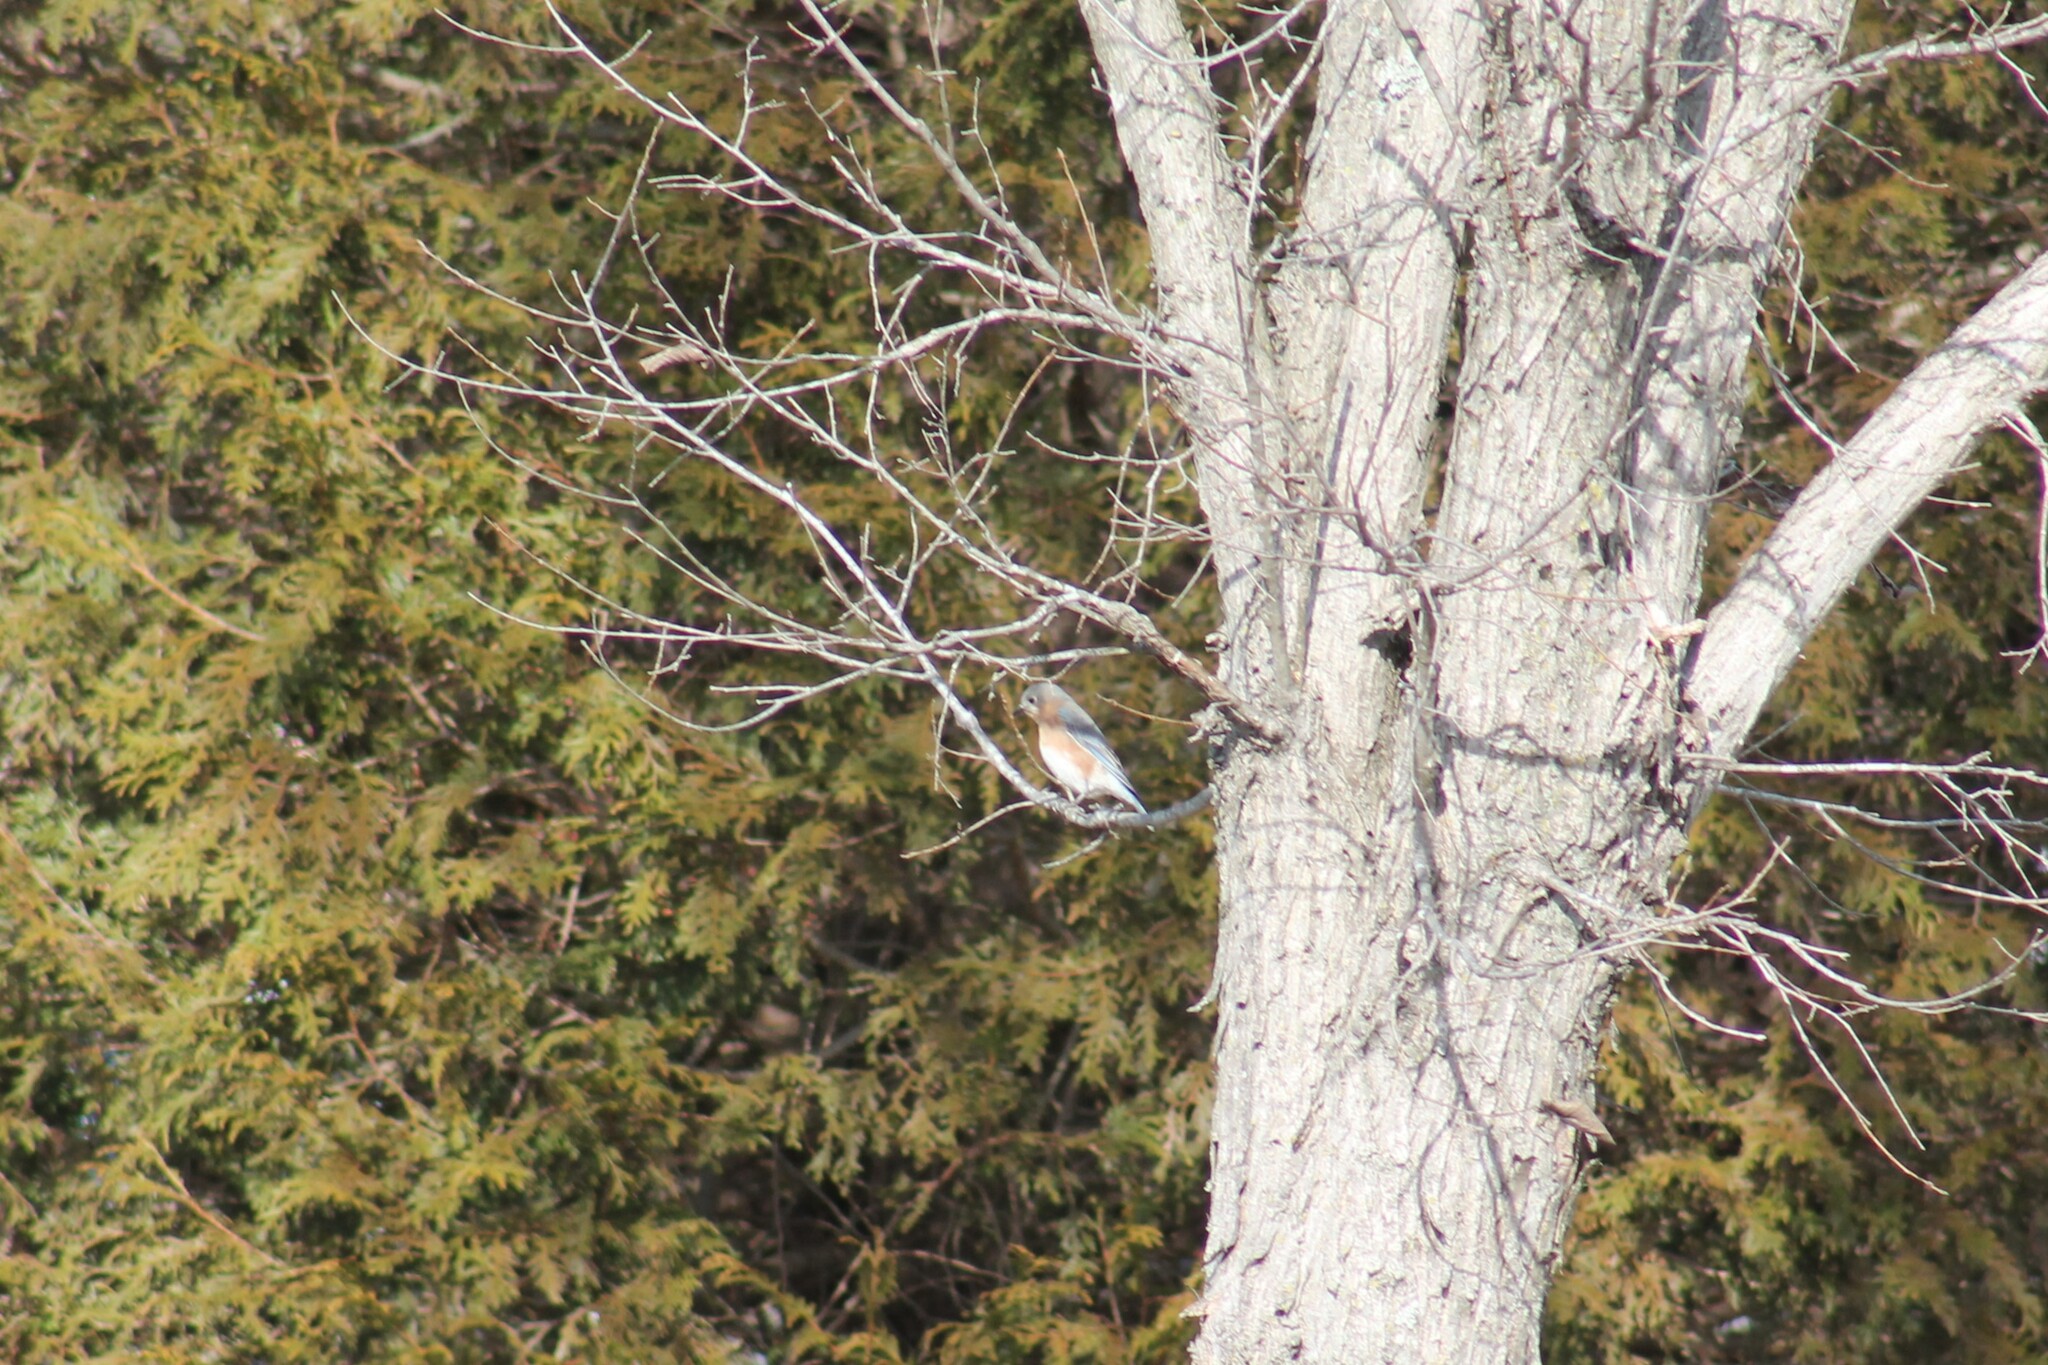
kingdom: Animalia
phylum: Chordata
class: Aves
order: Passeriformes
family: Turdidae
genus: Sialia
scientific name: Sialia sialis
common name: Eastern bluebird
